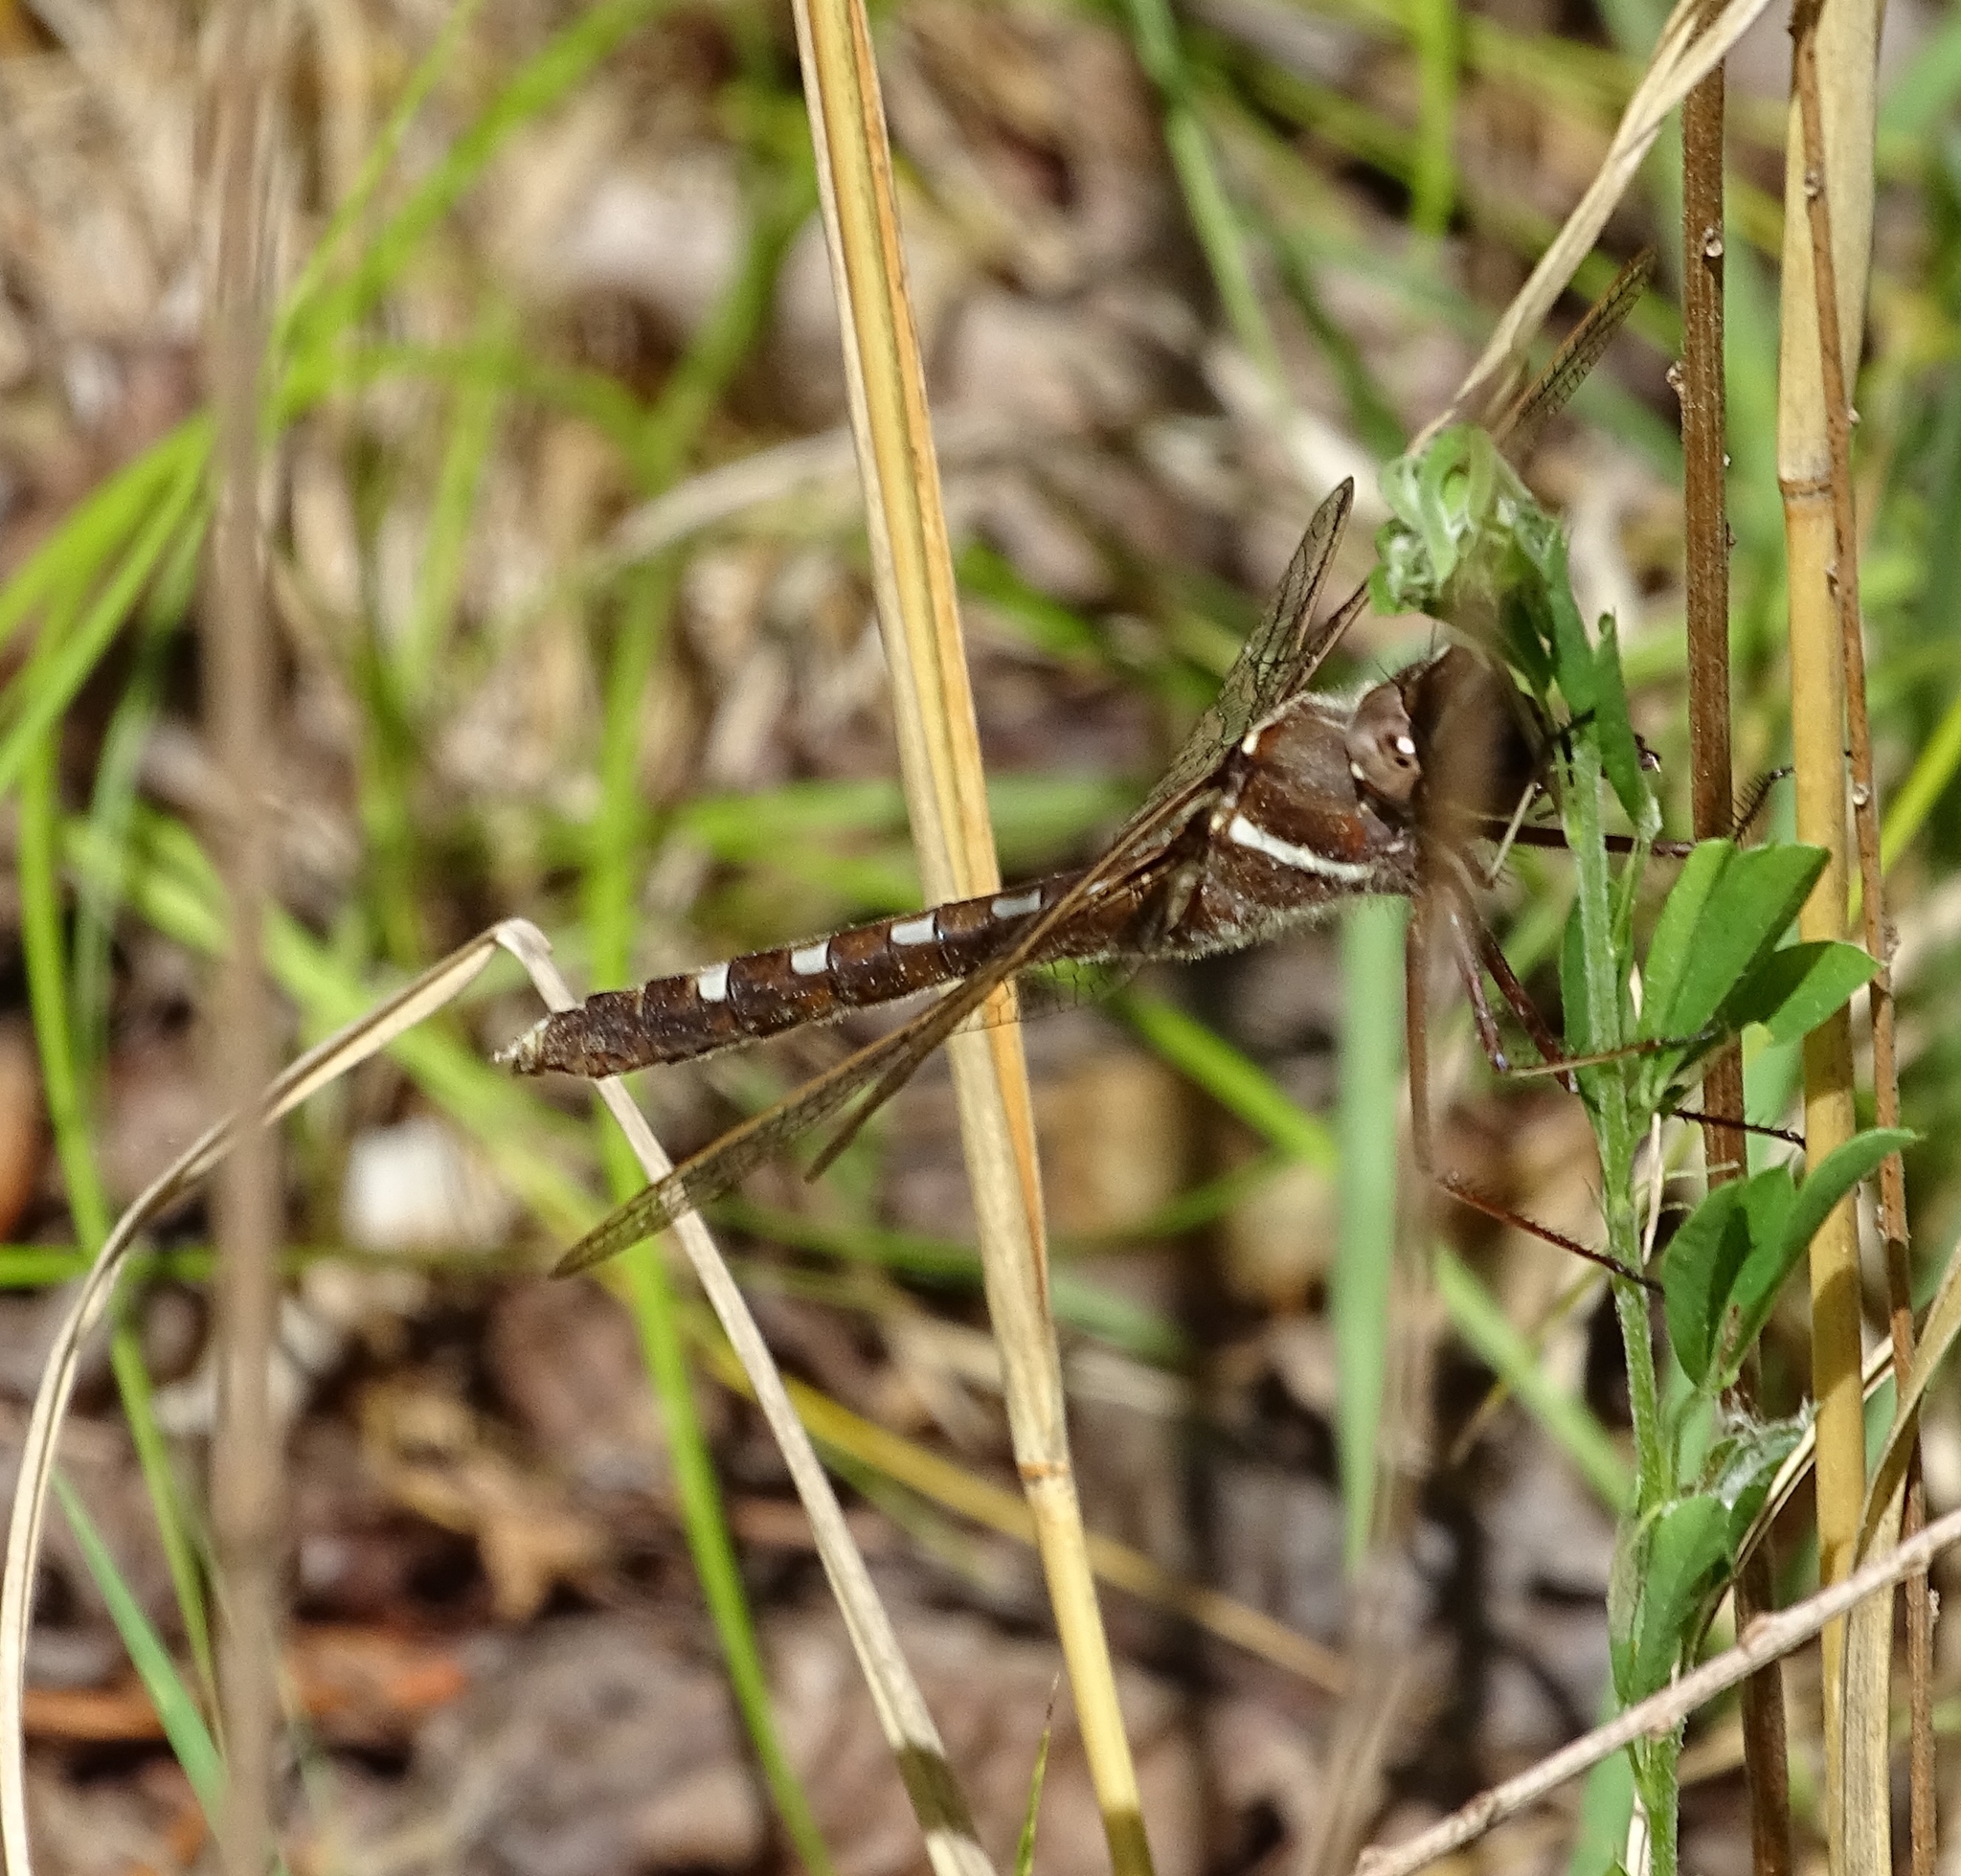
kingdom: Animalia
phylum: Arthropoda
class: Insecta
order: Odonata
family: Macromiidae
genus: Didymops
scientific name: Didymops transversa
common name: Stream cruiser
